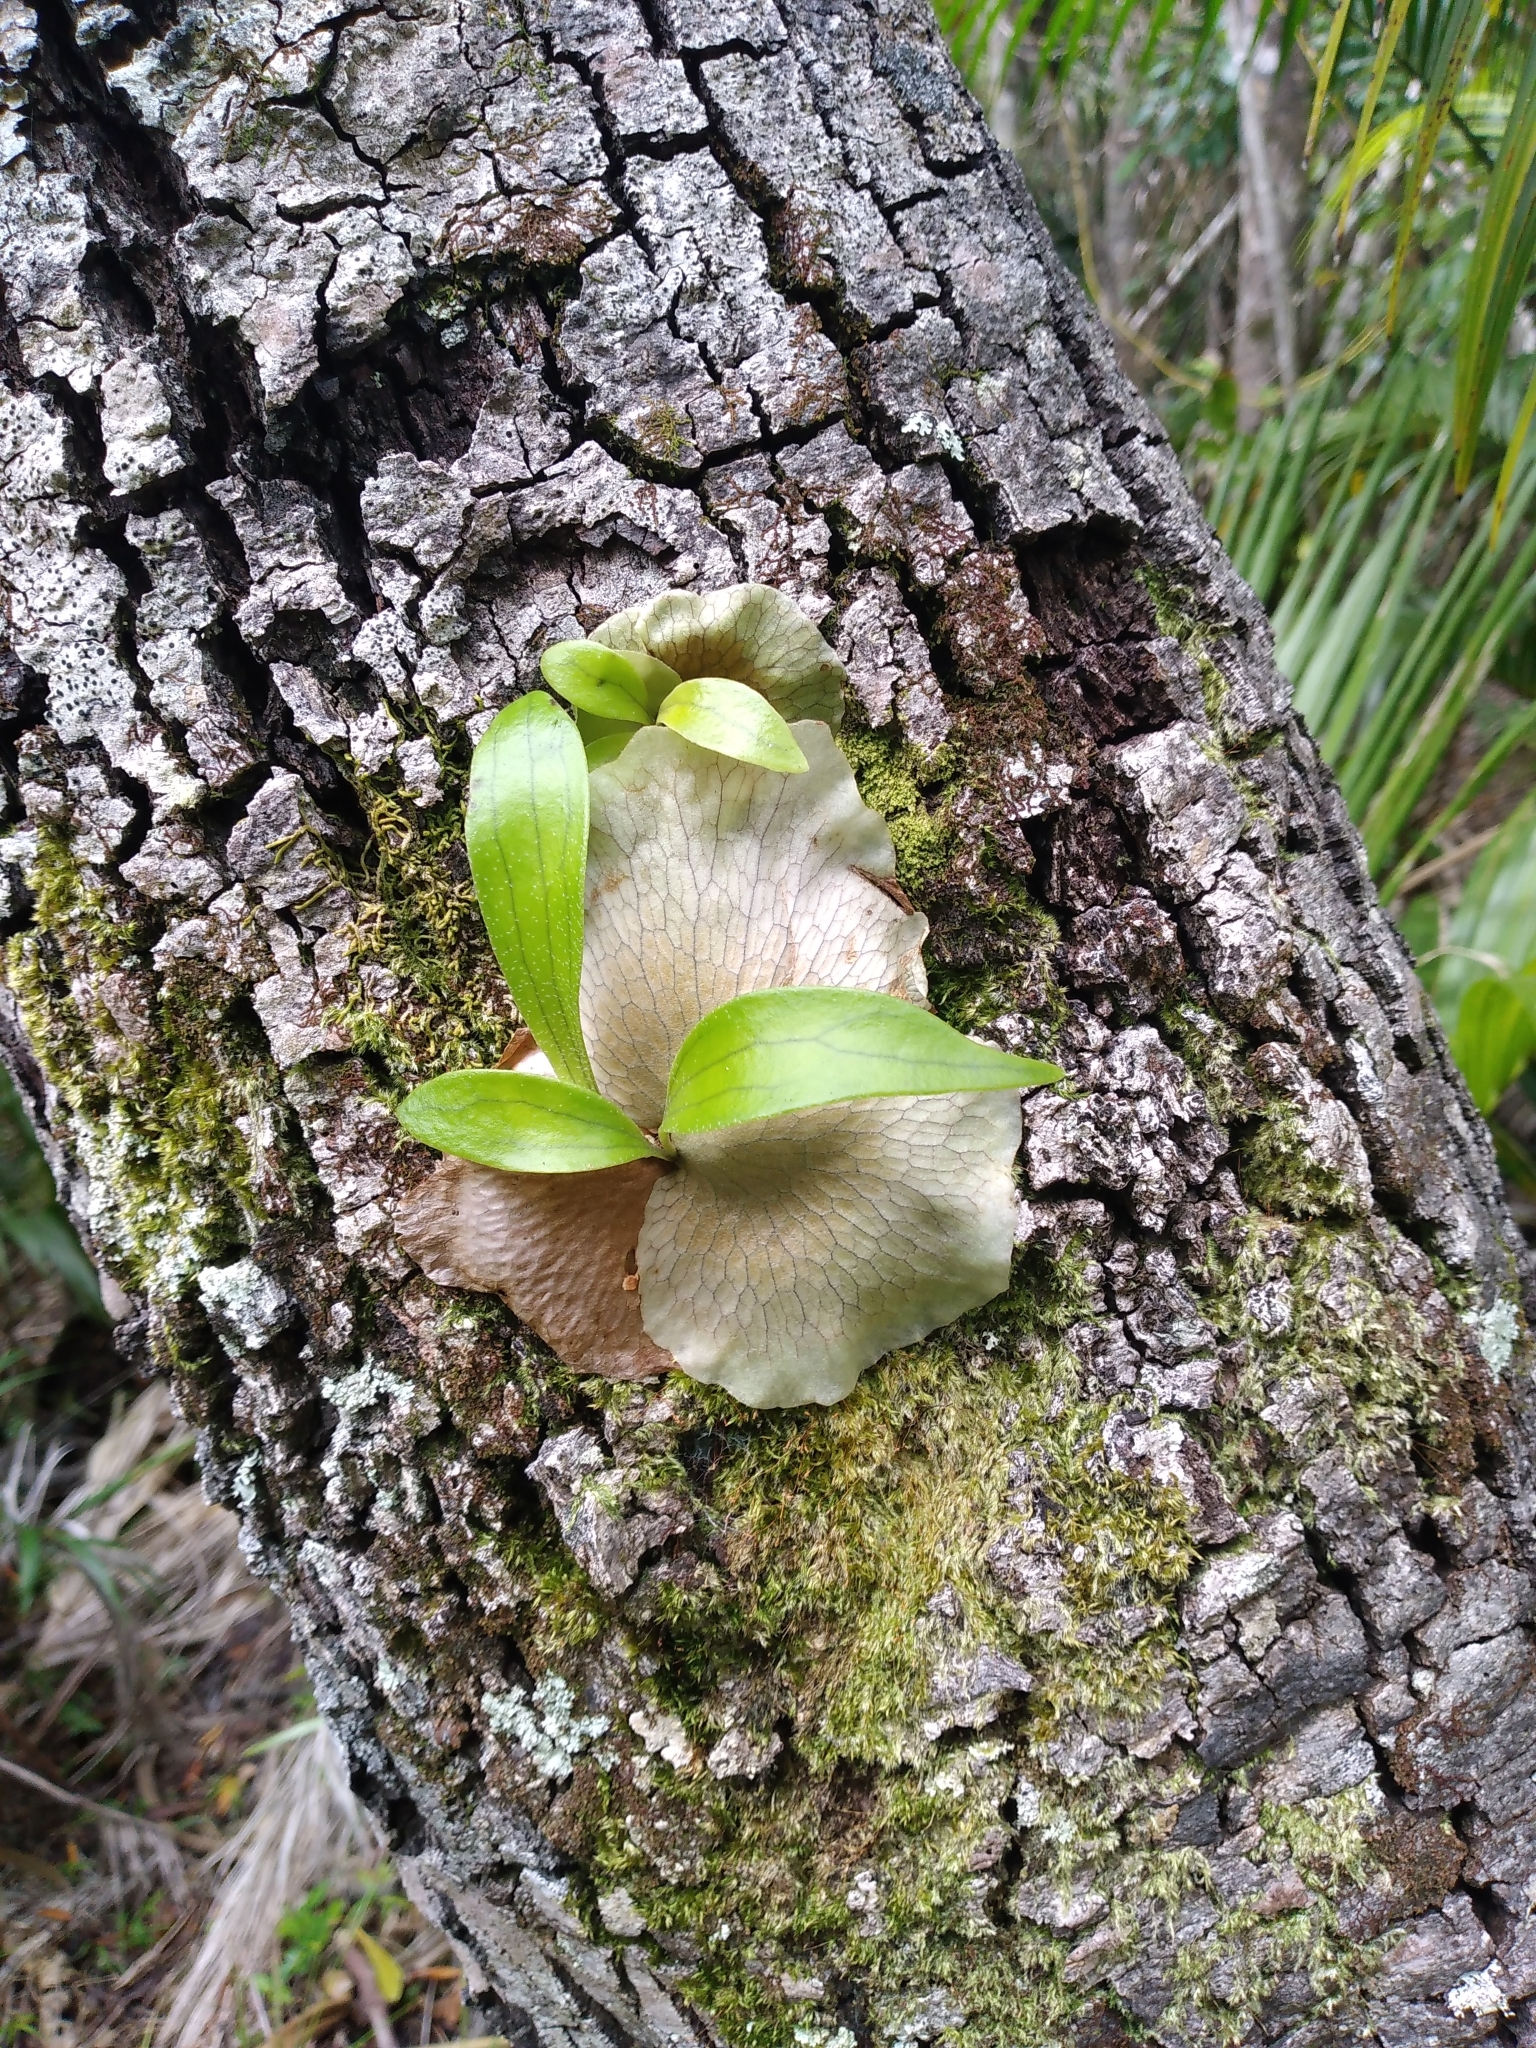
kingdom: Plantae
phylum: Tracheophyta
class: Polypodiopsida
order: Polypodiales
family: Polypodiaceae
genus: Platycerium
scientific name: Platycerium bifurcatum
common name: Elkhorn fern
